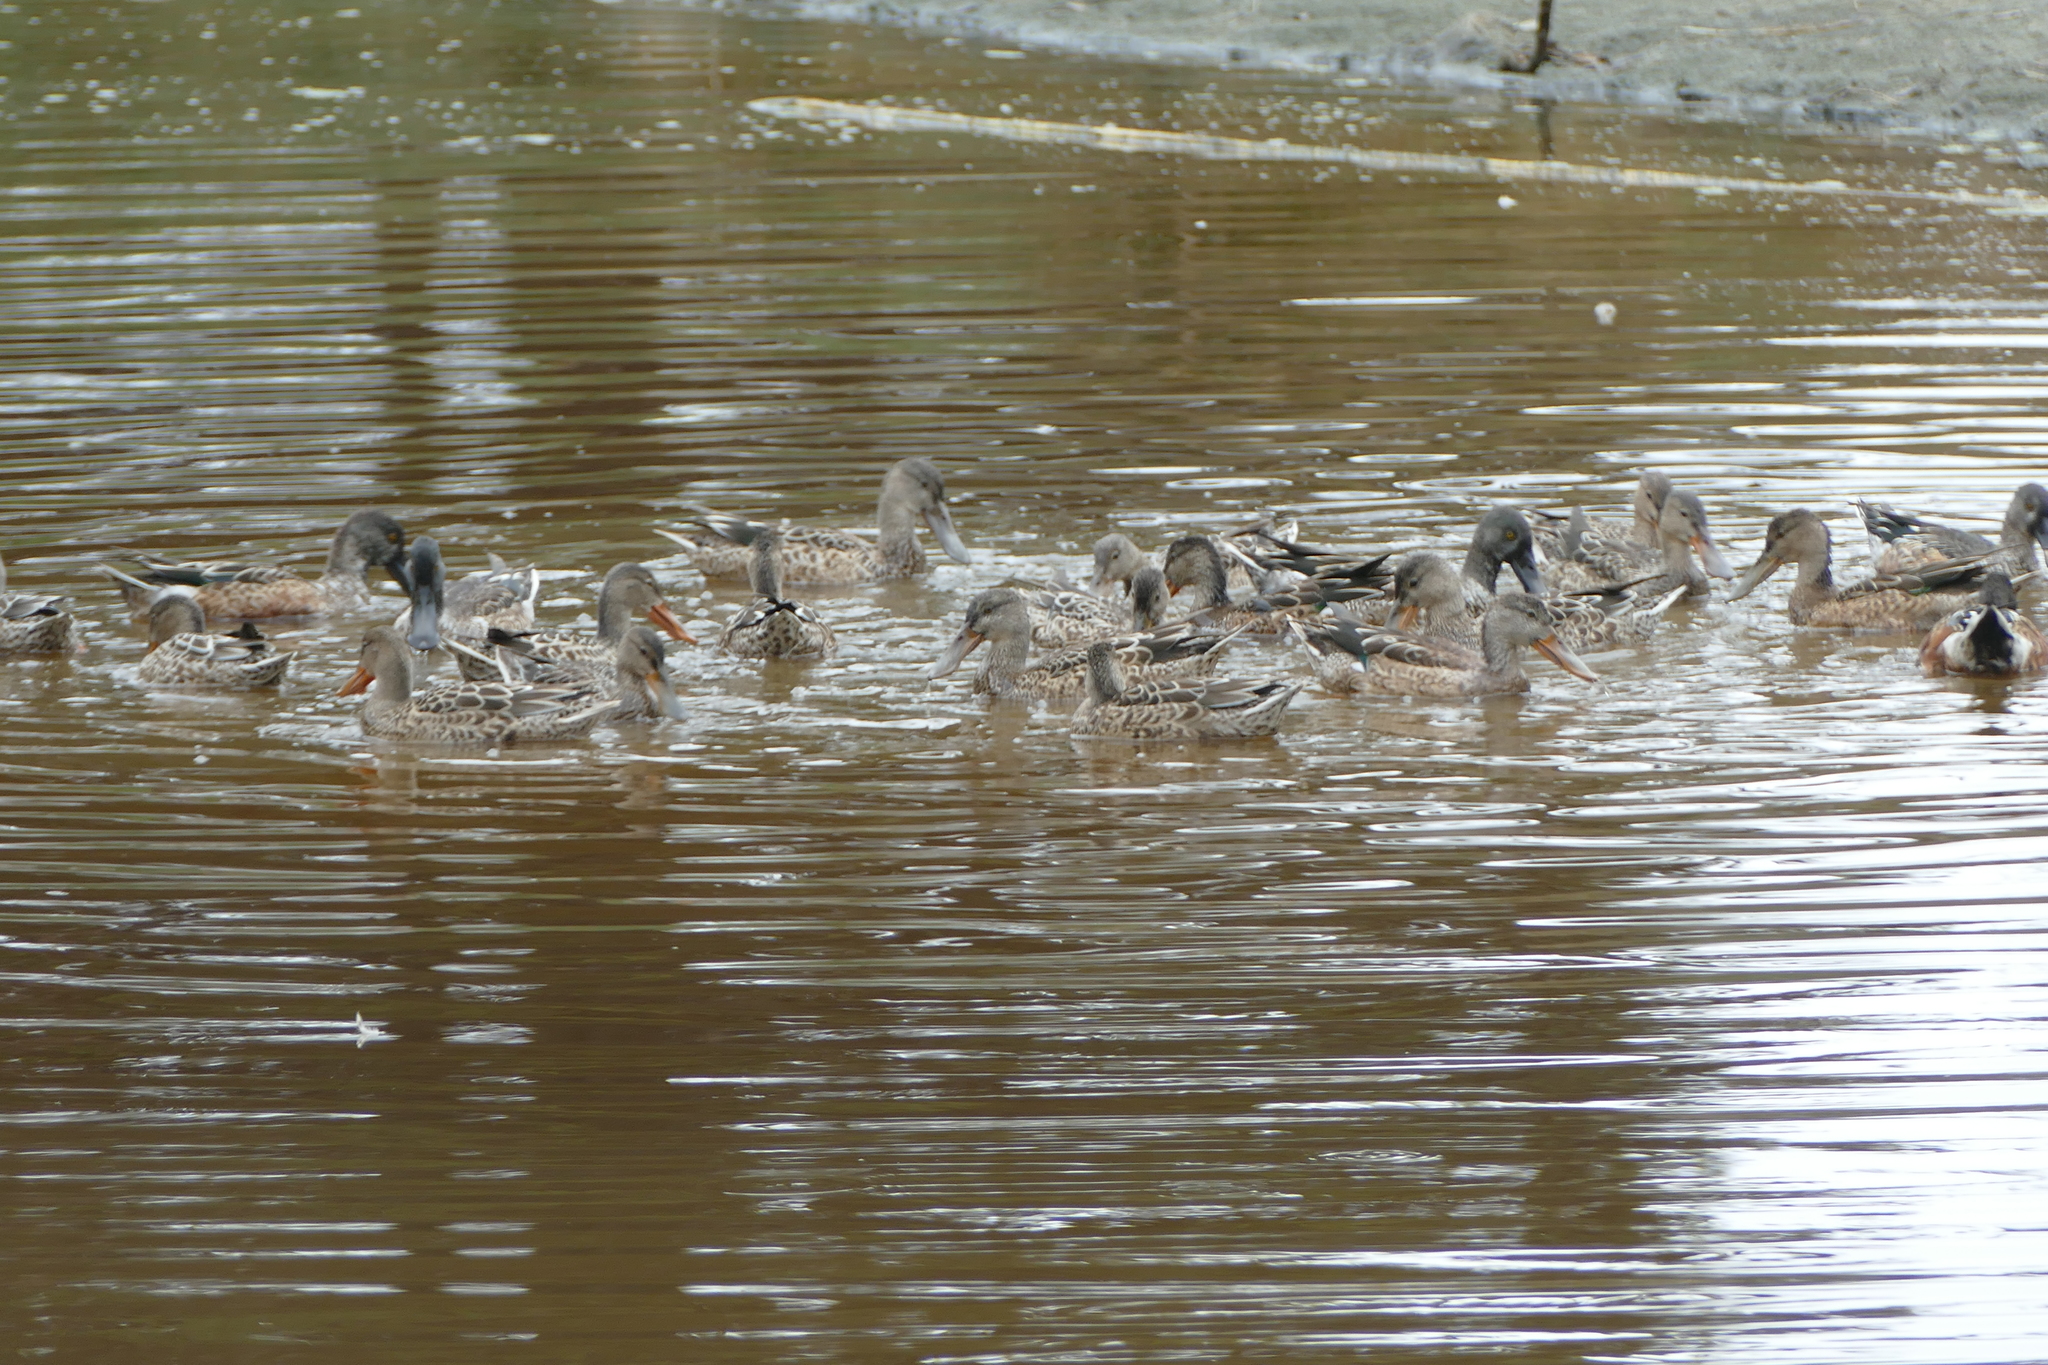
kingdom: Animalia
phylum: Chordata
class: Aves
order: Anseriformes
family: Anatidae
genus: Spatula
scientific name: Spatula clypeata
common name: Northern shoveler
